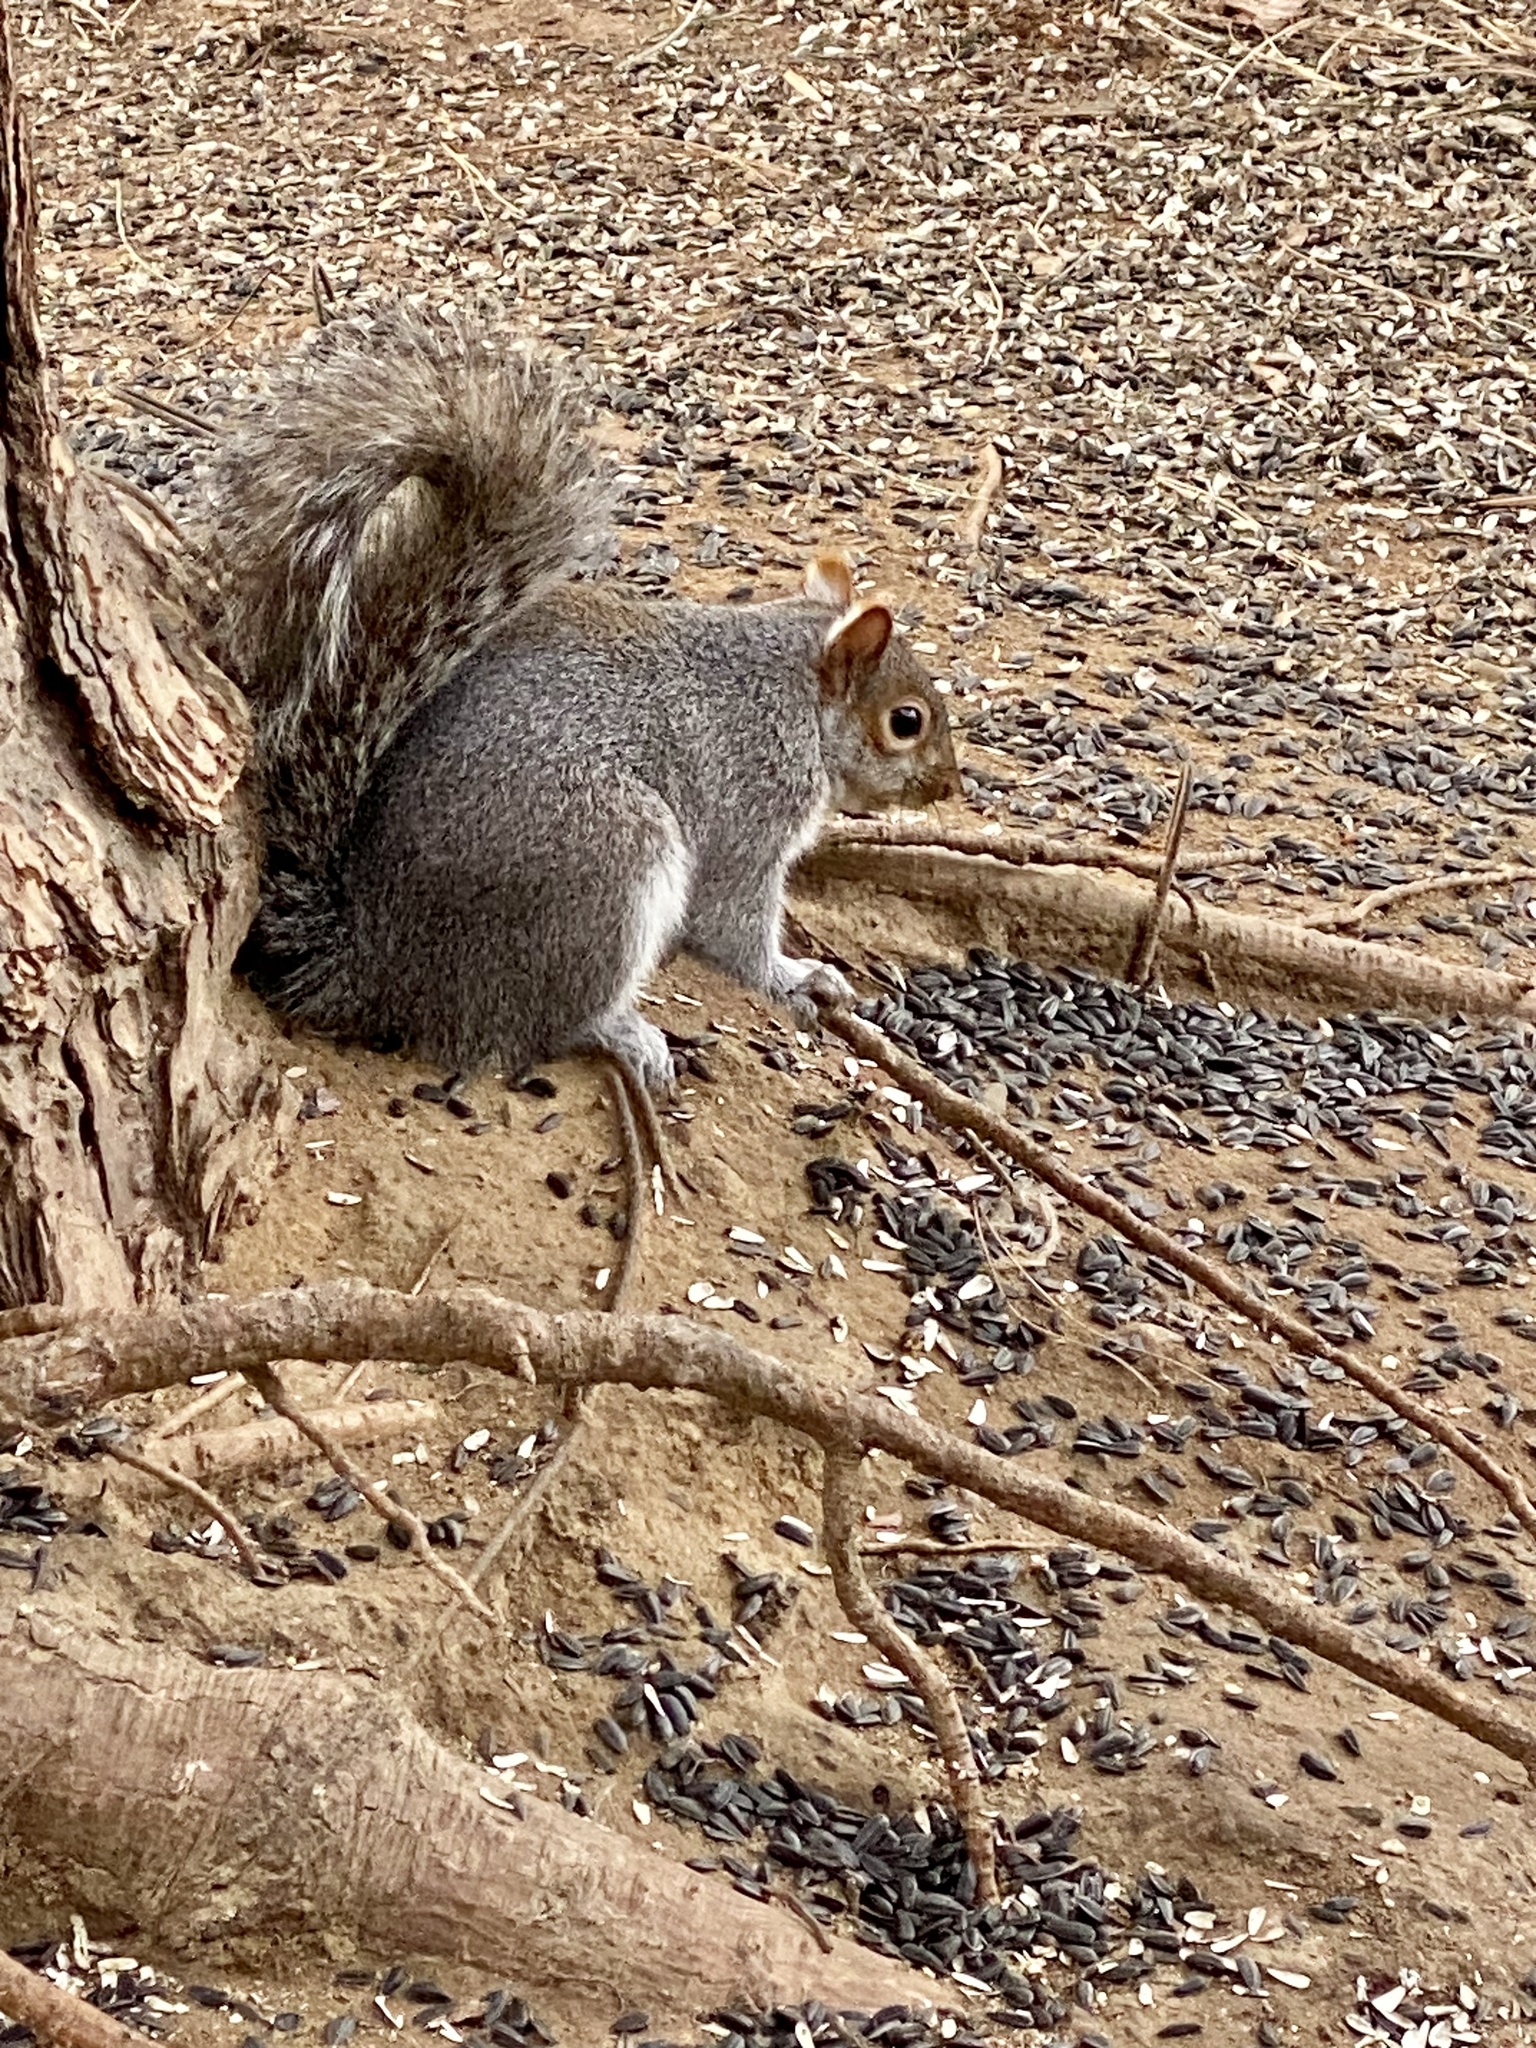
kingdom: Animalia
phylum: Chordata
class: Mammalia
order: Rodentia
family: Sciuridae
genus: Sciurus
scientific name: Sciurus carolinensis
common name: Eastern gray squirrel
